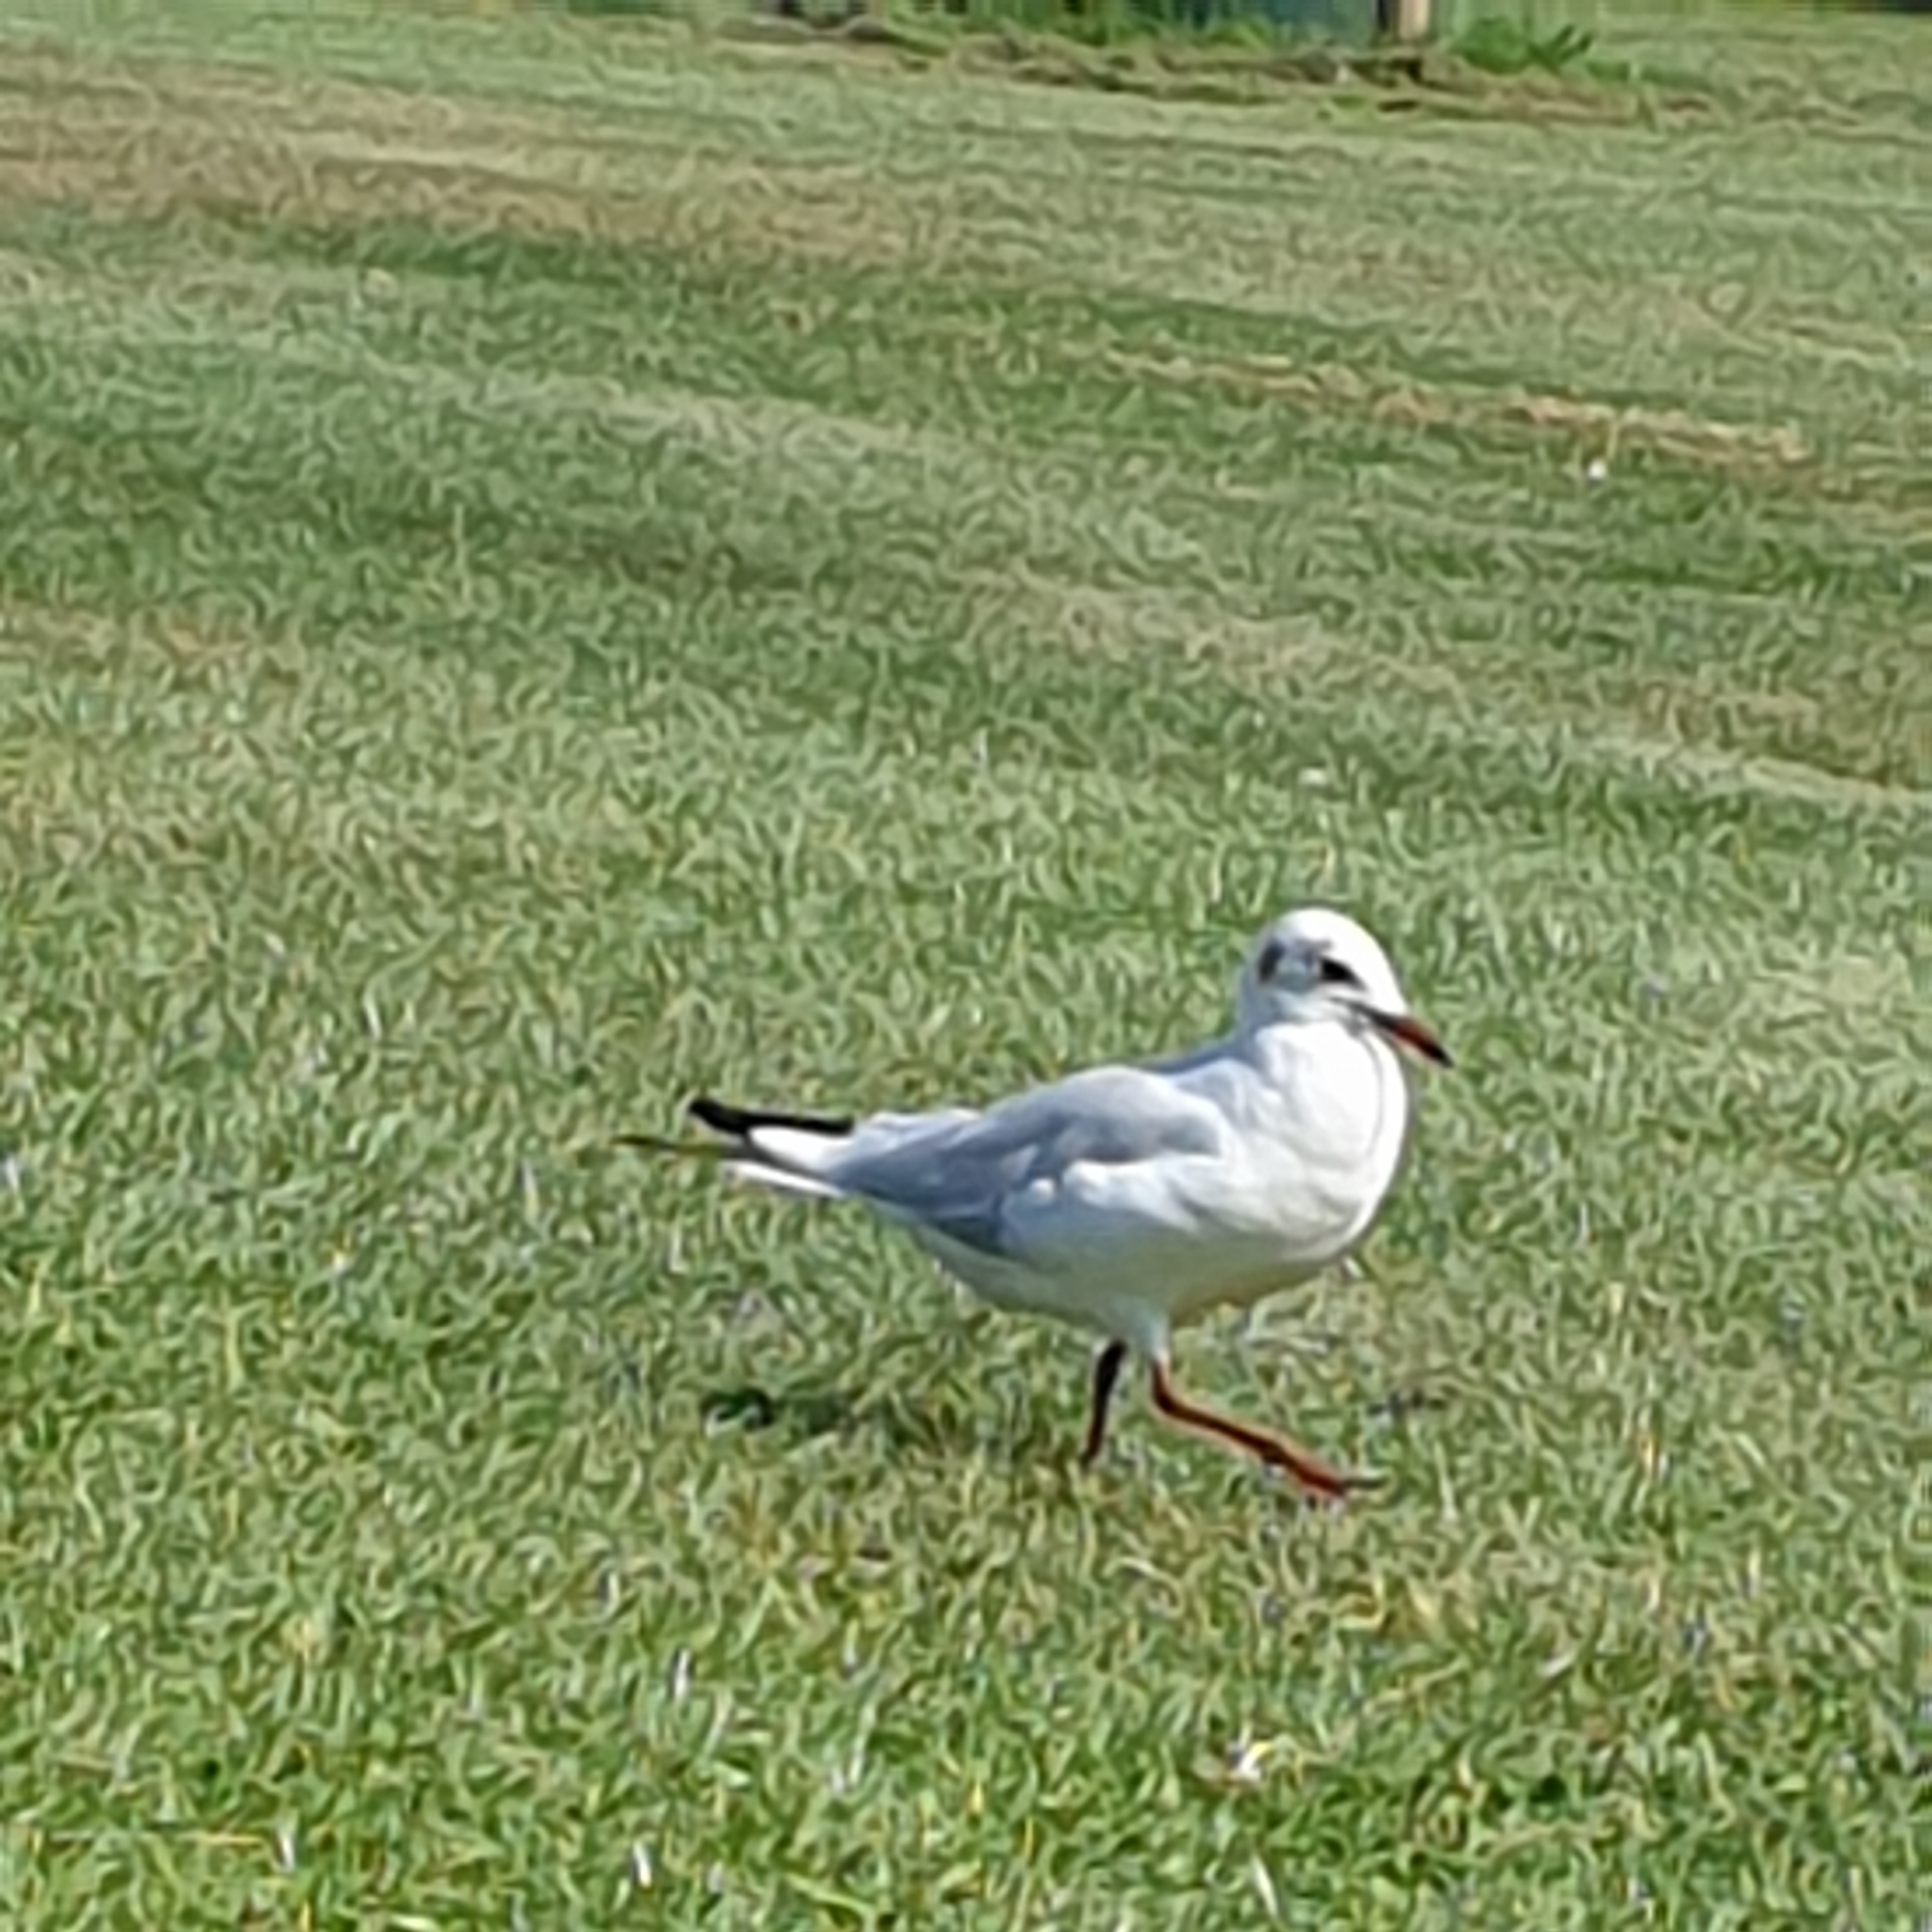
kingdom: Animalia
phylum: Chordata
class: Aves
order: Charadriiformes
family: Laridae
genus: Chroicocephalus
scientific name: Chroicocephalus ridibundus
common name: Black-headed gull
